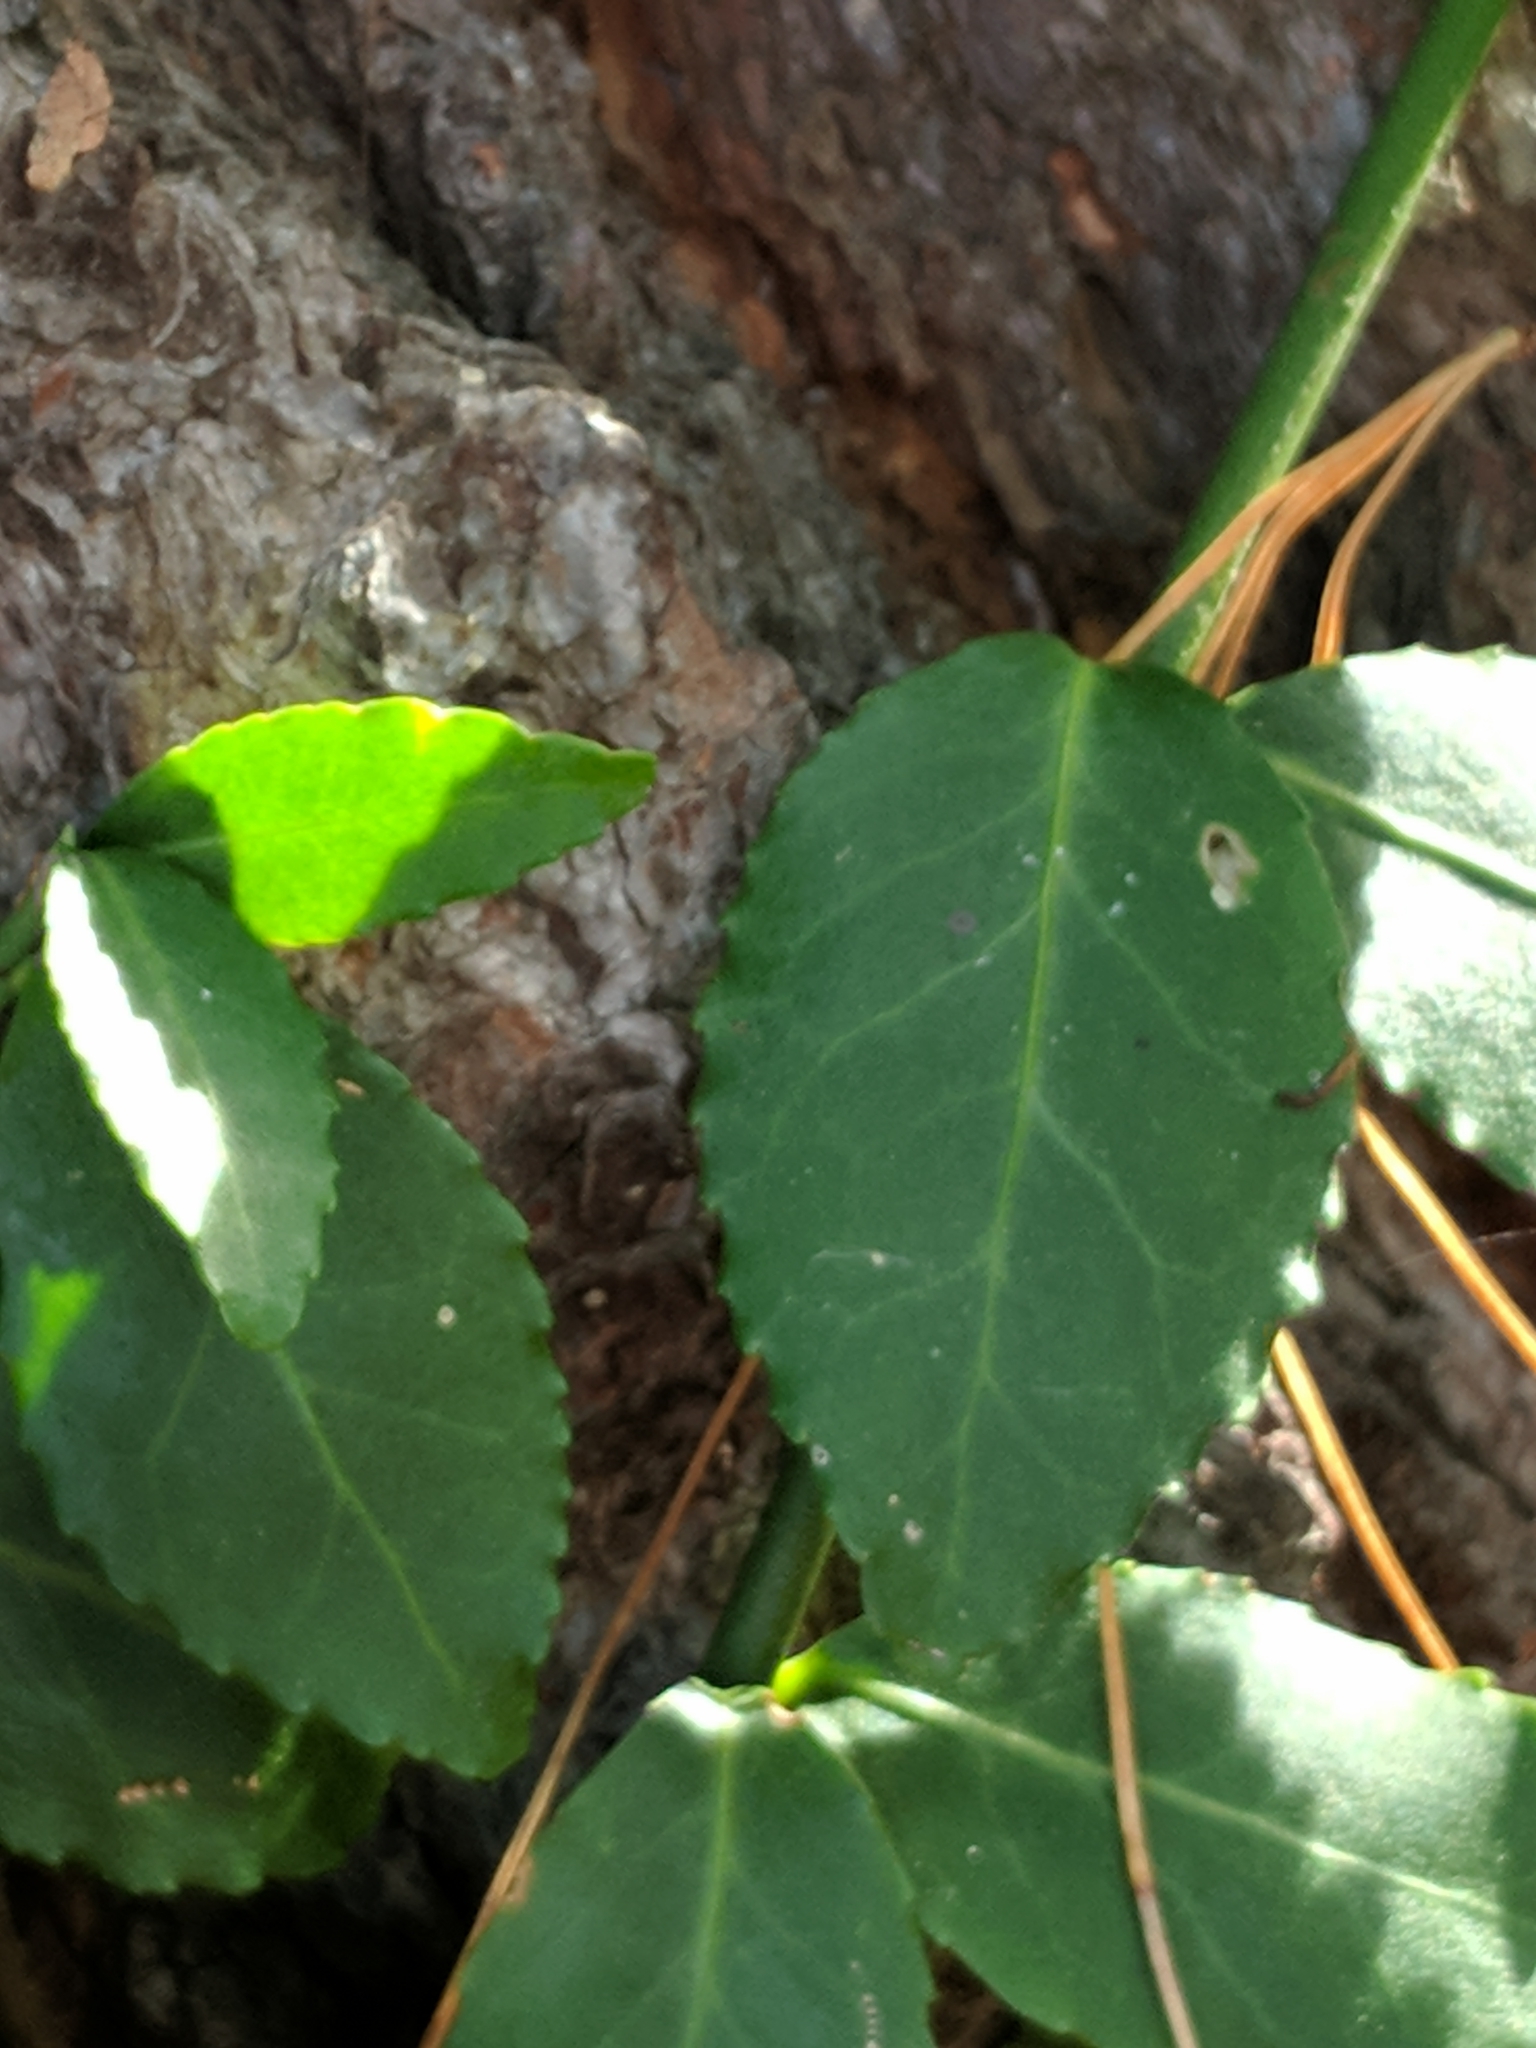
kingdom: Plantae
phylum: Tracheophyta
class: Magnoliopsida
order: Celastrales
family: Celastraceae
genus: Euonymus
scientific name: Euonymus fortunei
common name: Climbing euonymus
